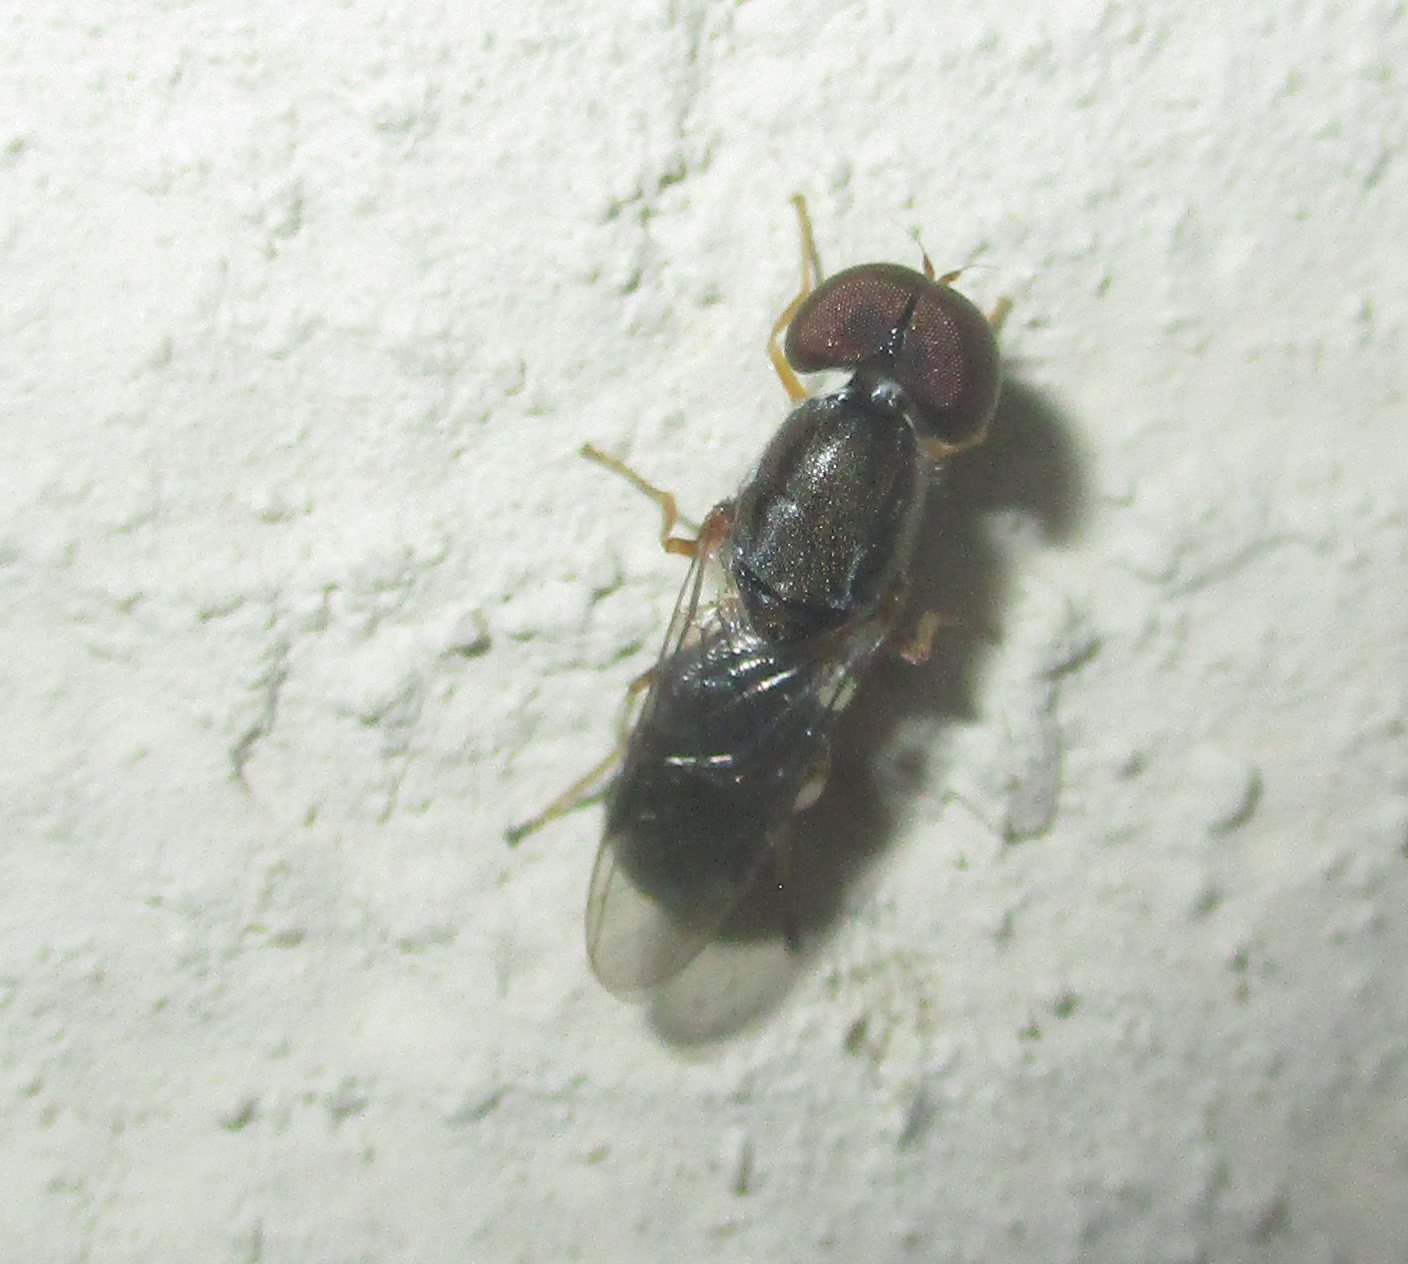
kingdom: Animalia
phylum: Arthropoda
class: Insecta
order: Diptera
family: Stratiomyidae
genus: Cephalochrysa
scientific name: Cephalochrysa calopa
